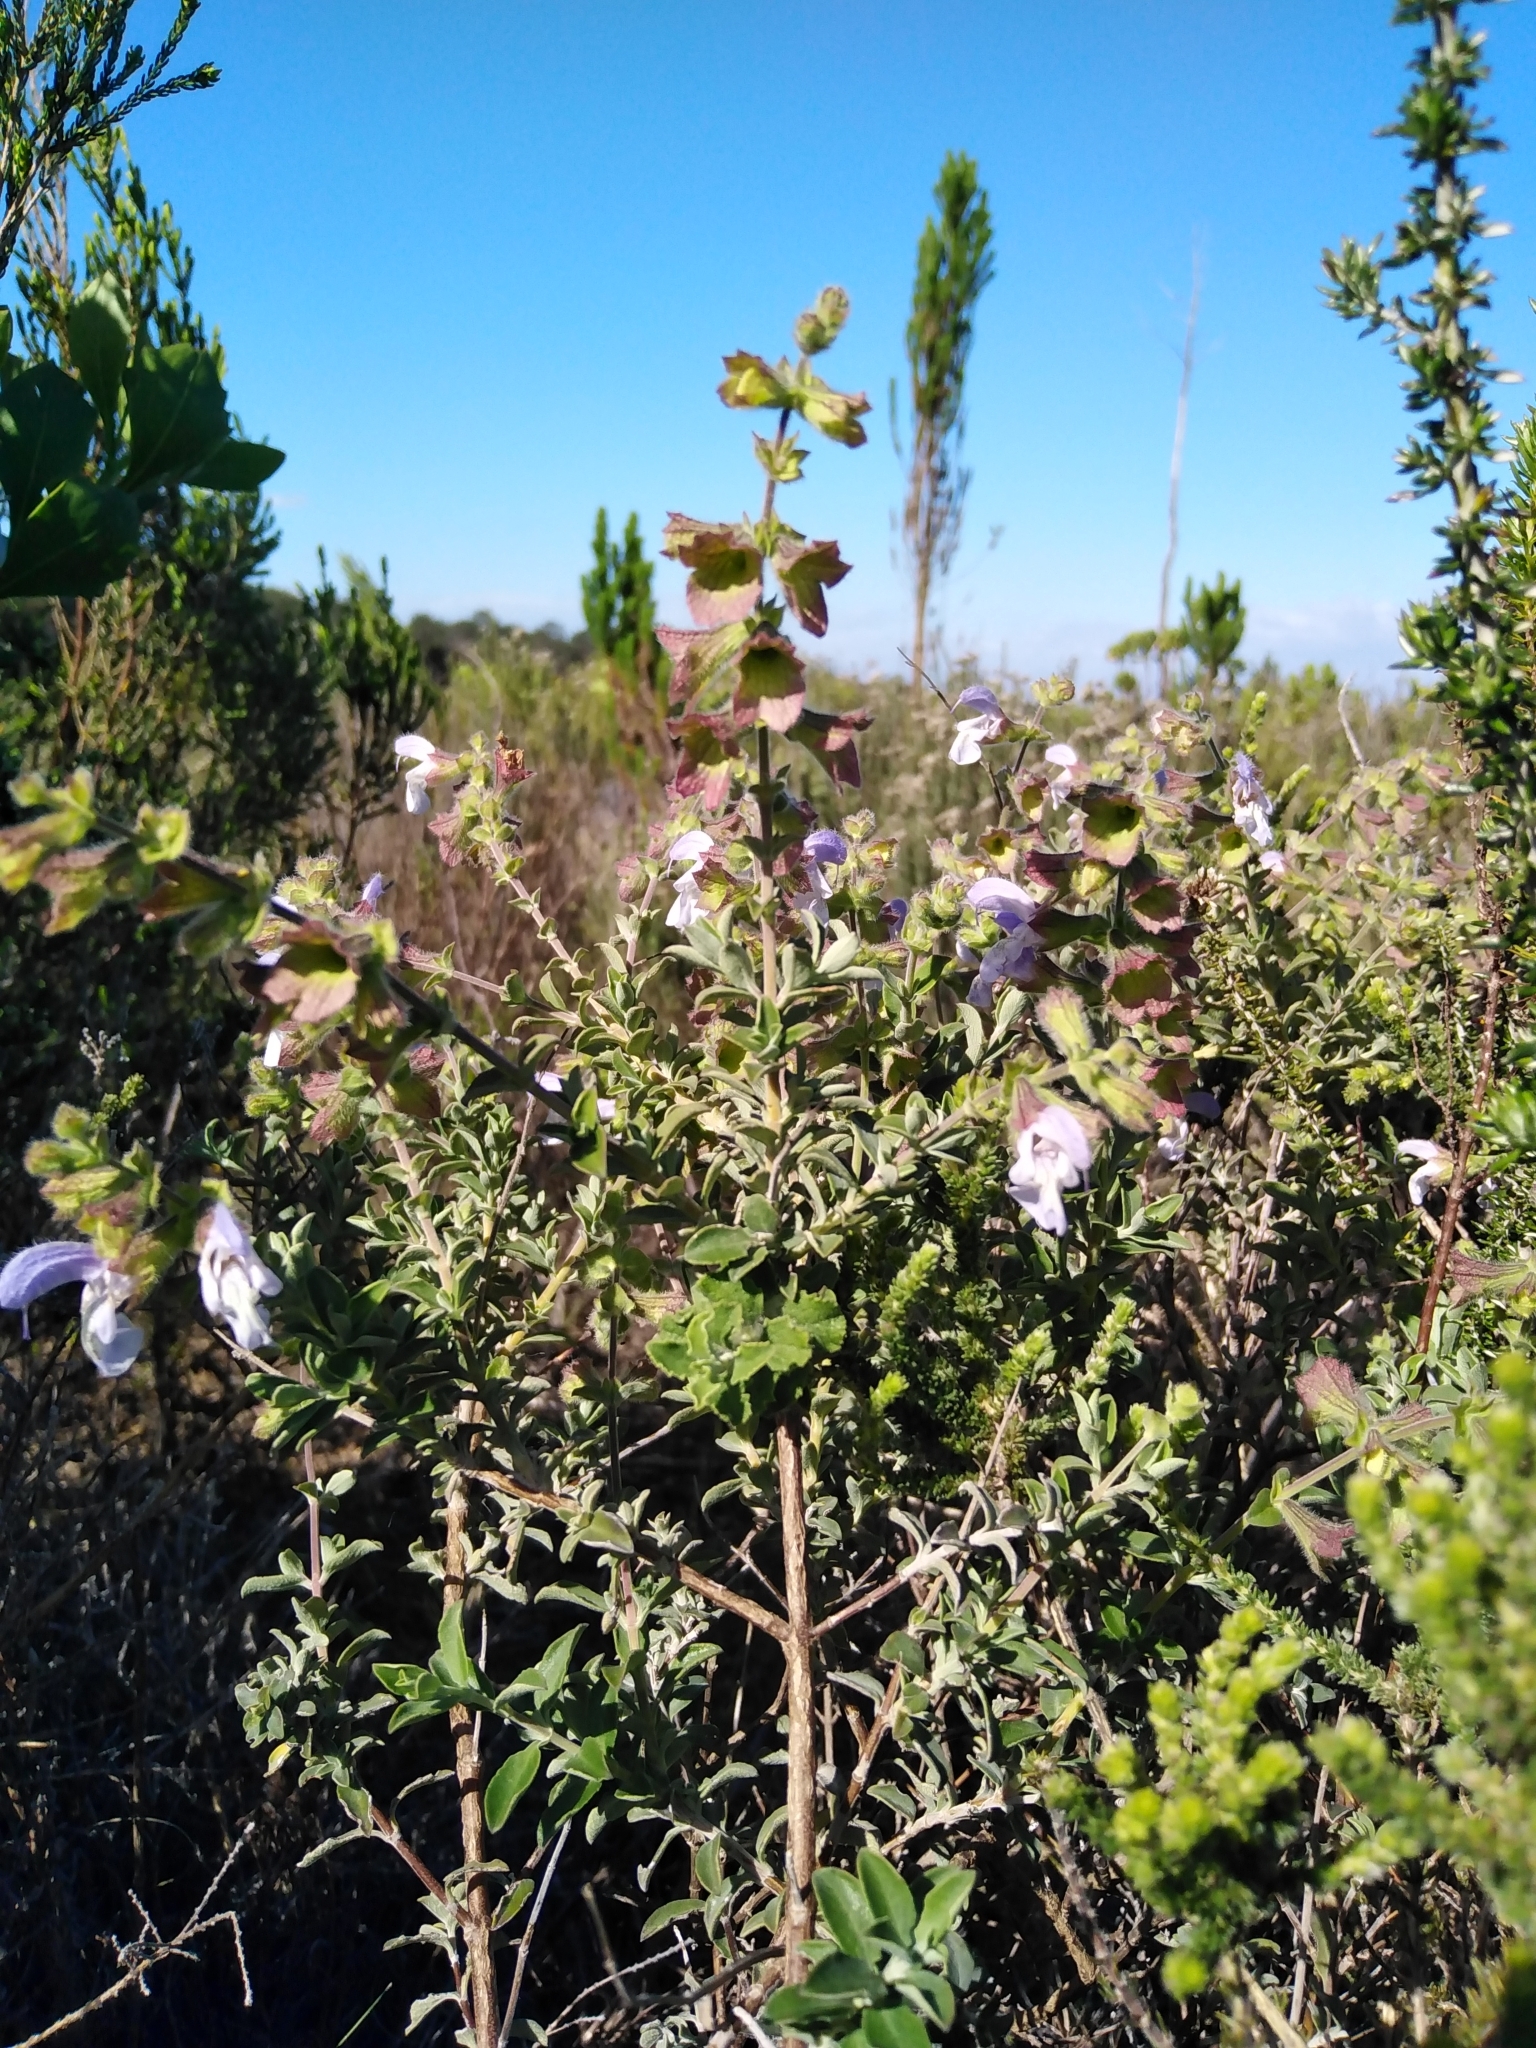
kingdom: Plantae
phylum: Tracheophyta
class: Magnoliopsida
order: Lamiales
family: Lamiaceae
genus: Salvia
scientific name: Salvia africana
